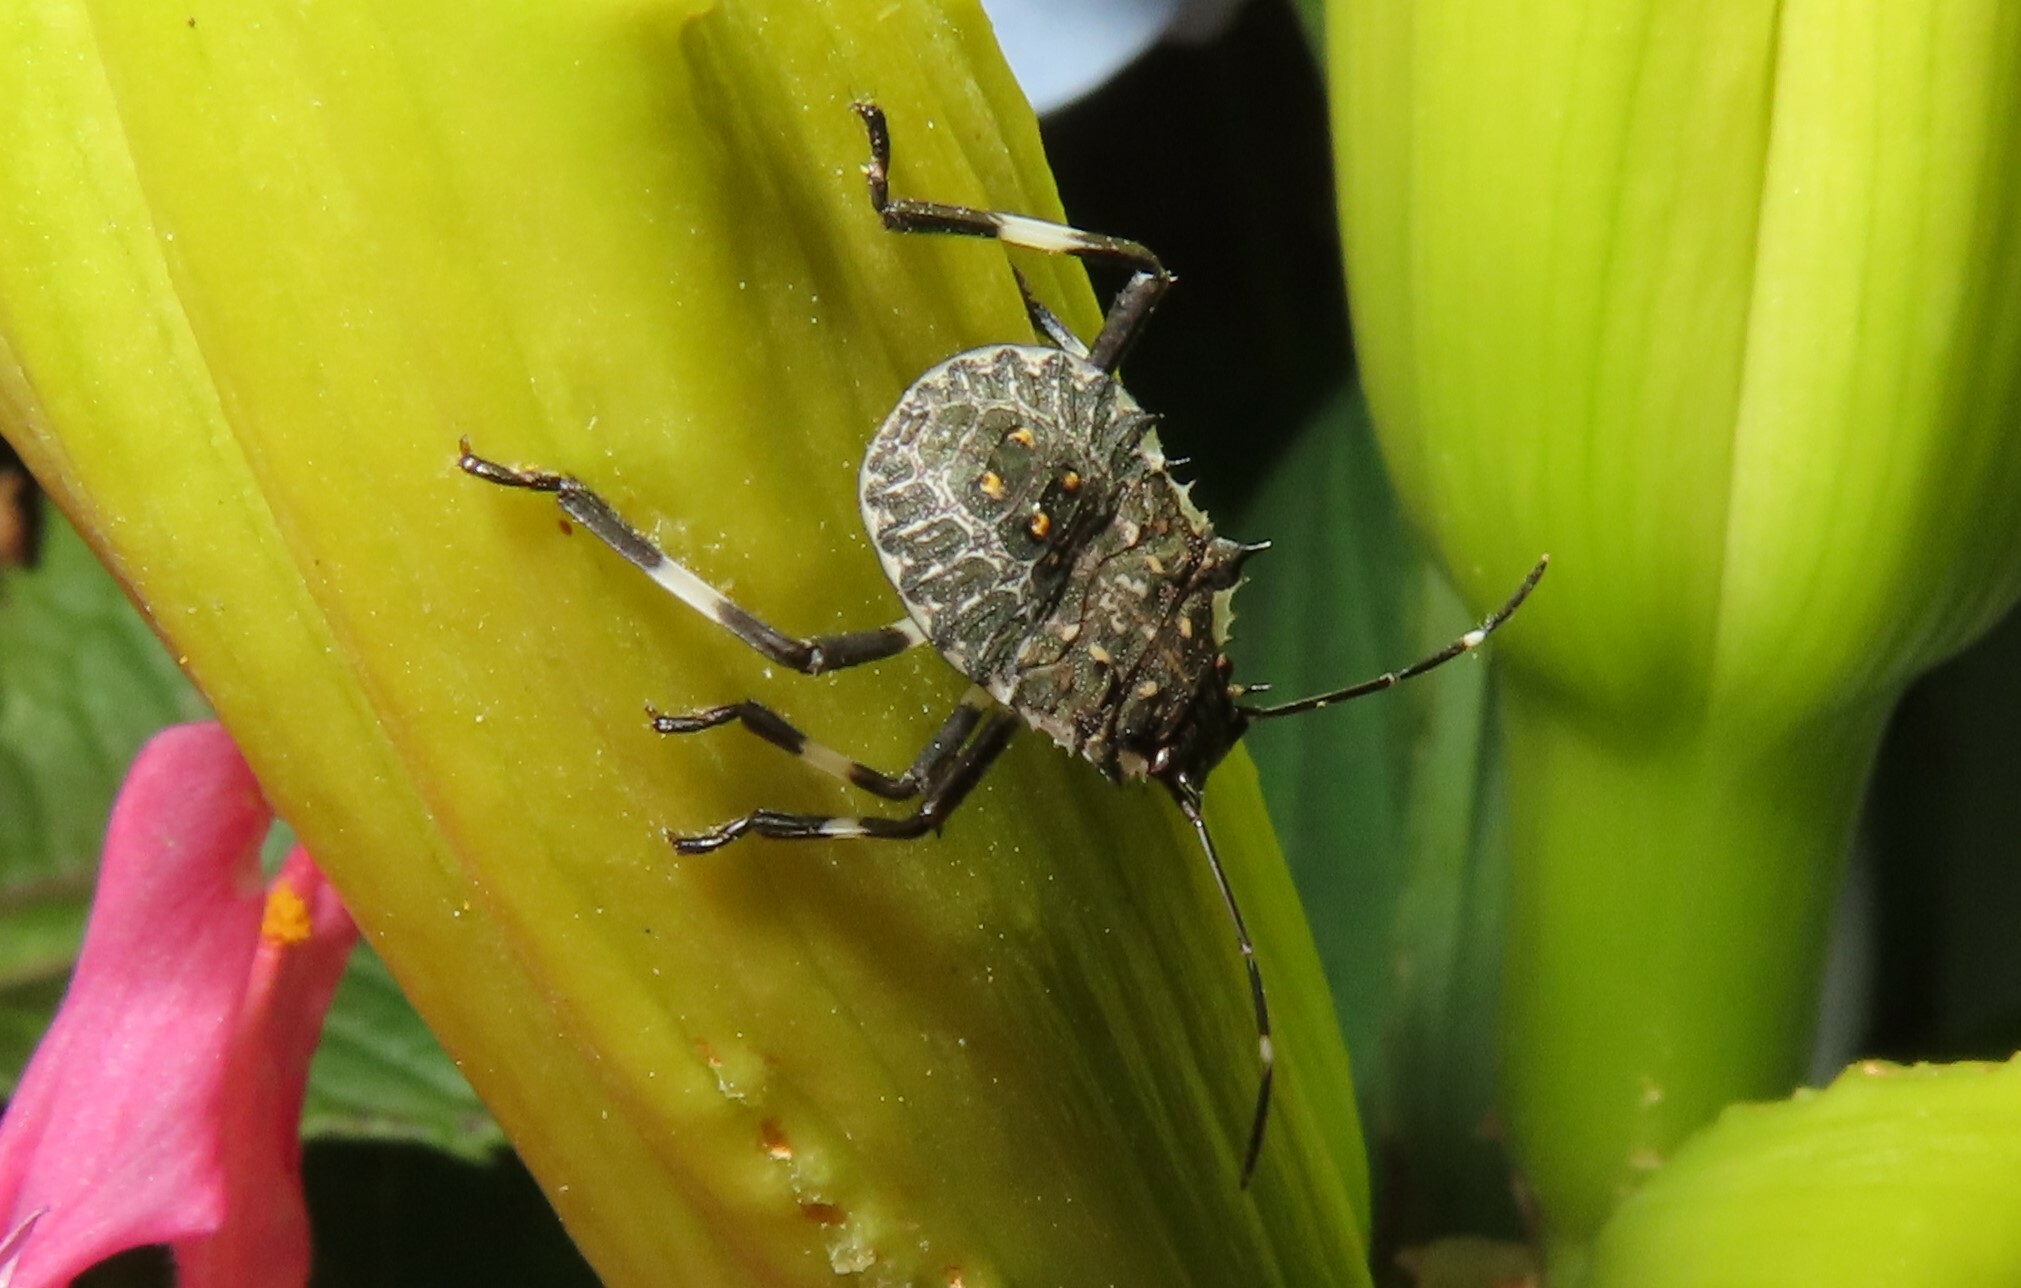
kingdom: Animalia
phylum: Arthropoda
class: Insecta
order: Hemiptera
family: Pentatomidae
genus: Halyomorpha
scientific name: Halyomorpha halys
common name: Brown marmorated stink bug
